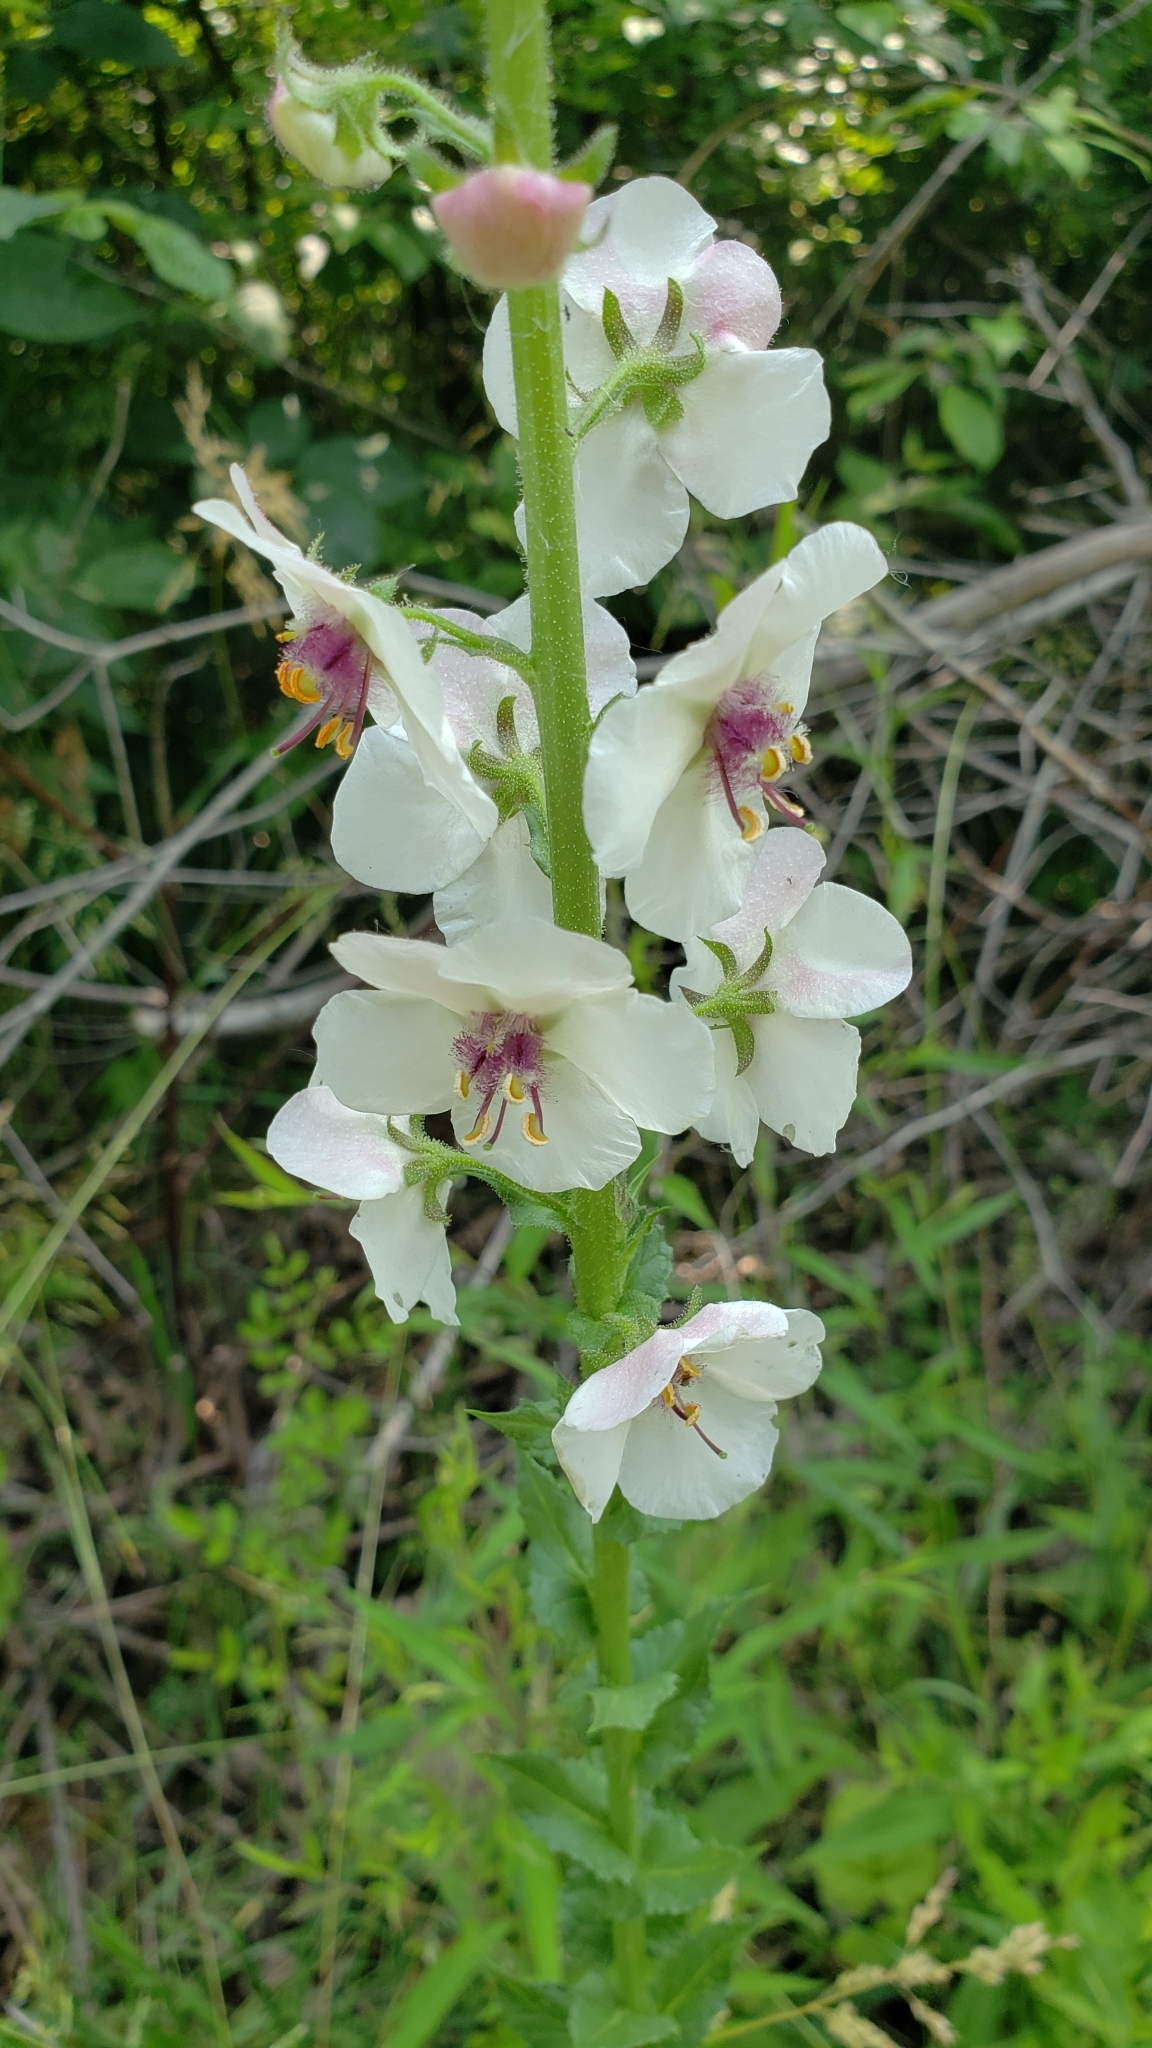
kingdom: Plantae
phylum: Tracheophyta
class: Magnoliopsida
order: Lamiales
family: Scrophulariaceae
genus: Verbascum
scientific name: Verbascum blattaria
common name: Moth mullein
